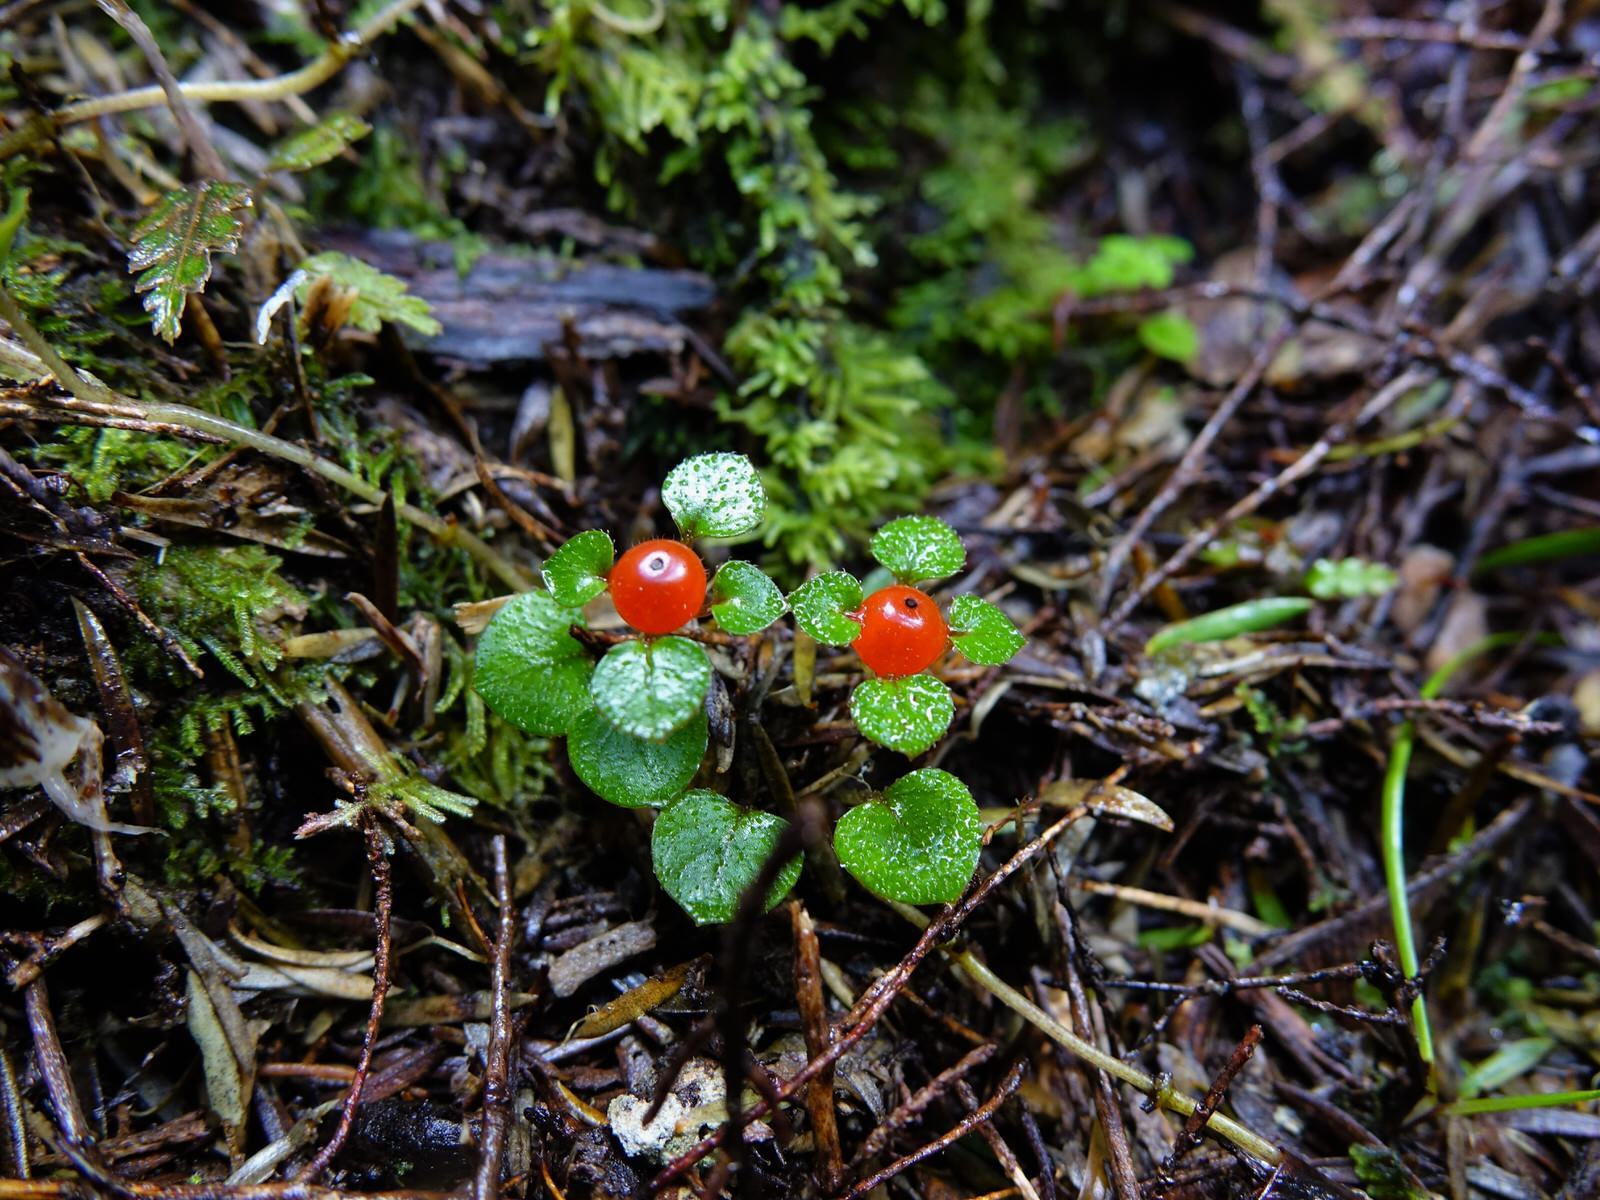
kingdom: Plantae
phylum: Tracheophyta
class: Magnoliopsida
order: Gentianales
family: Rubiaceae
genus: Nertera
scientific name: Nertera dichondrifolia
